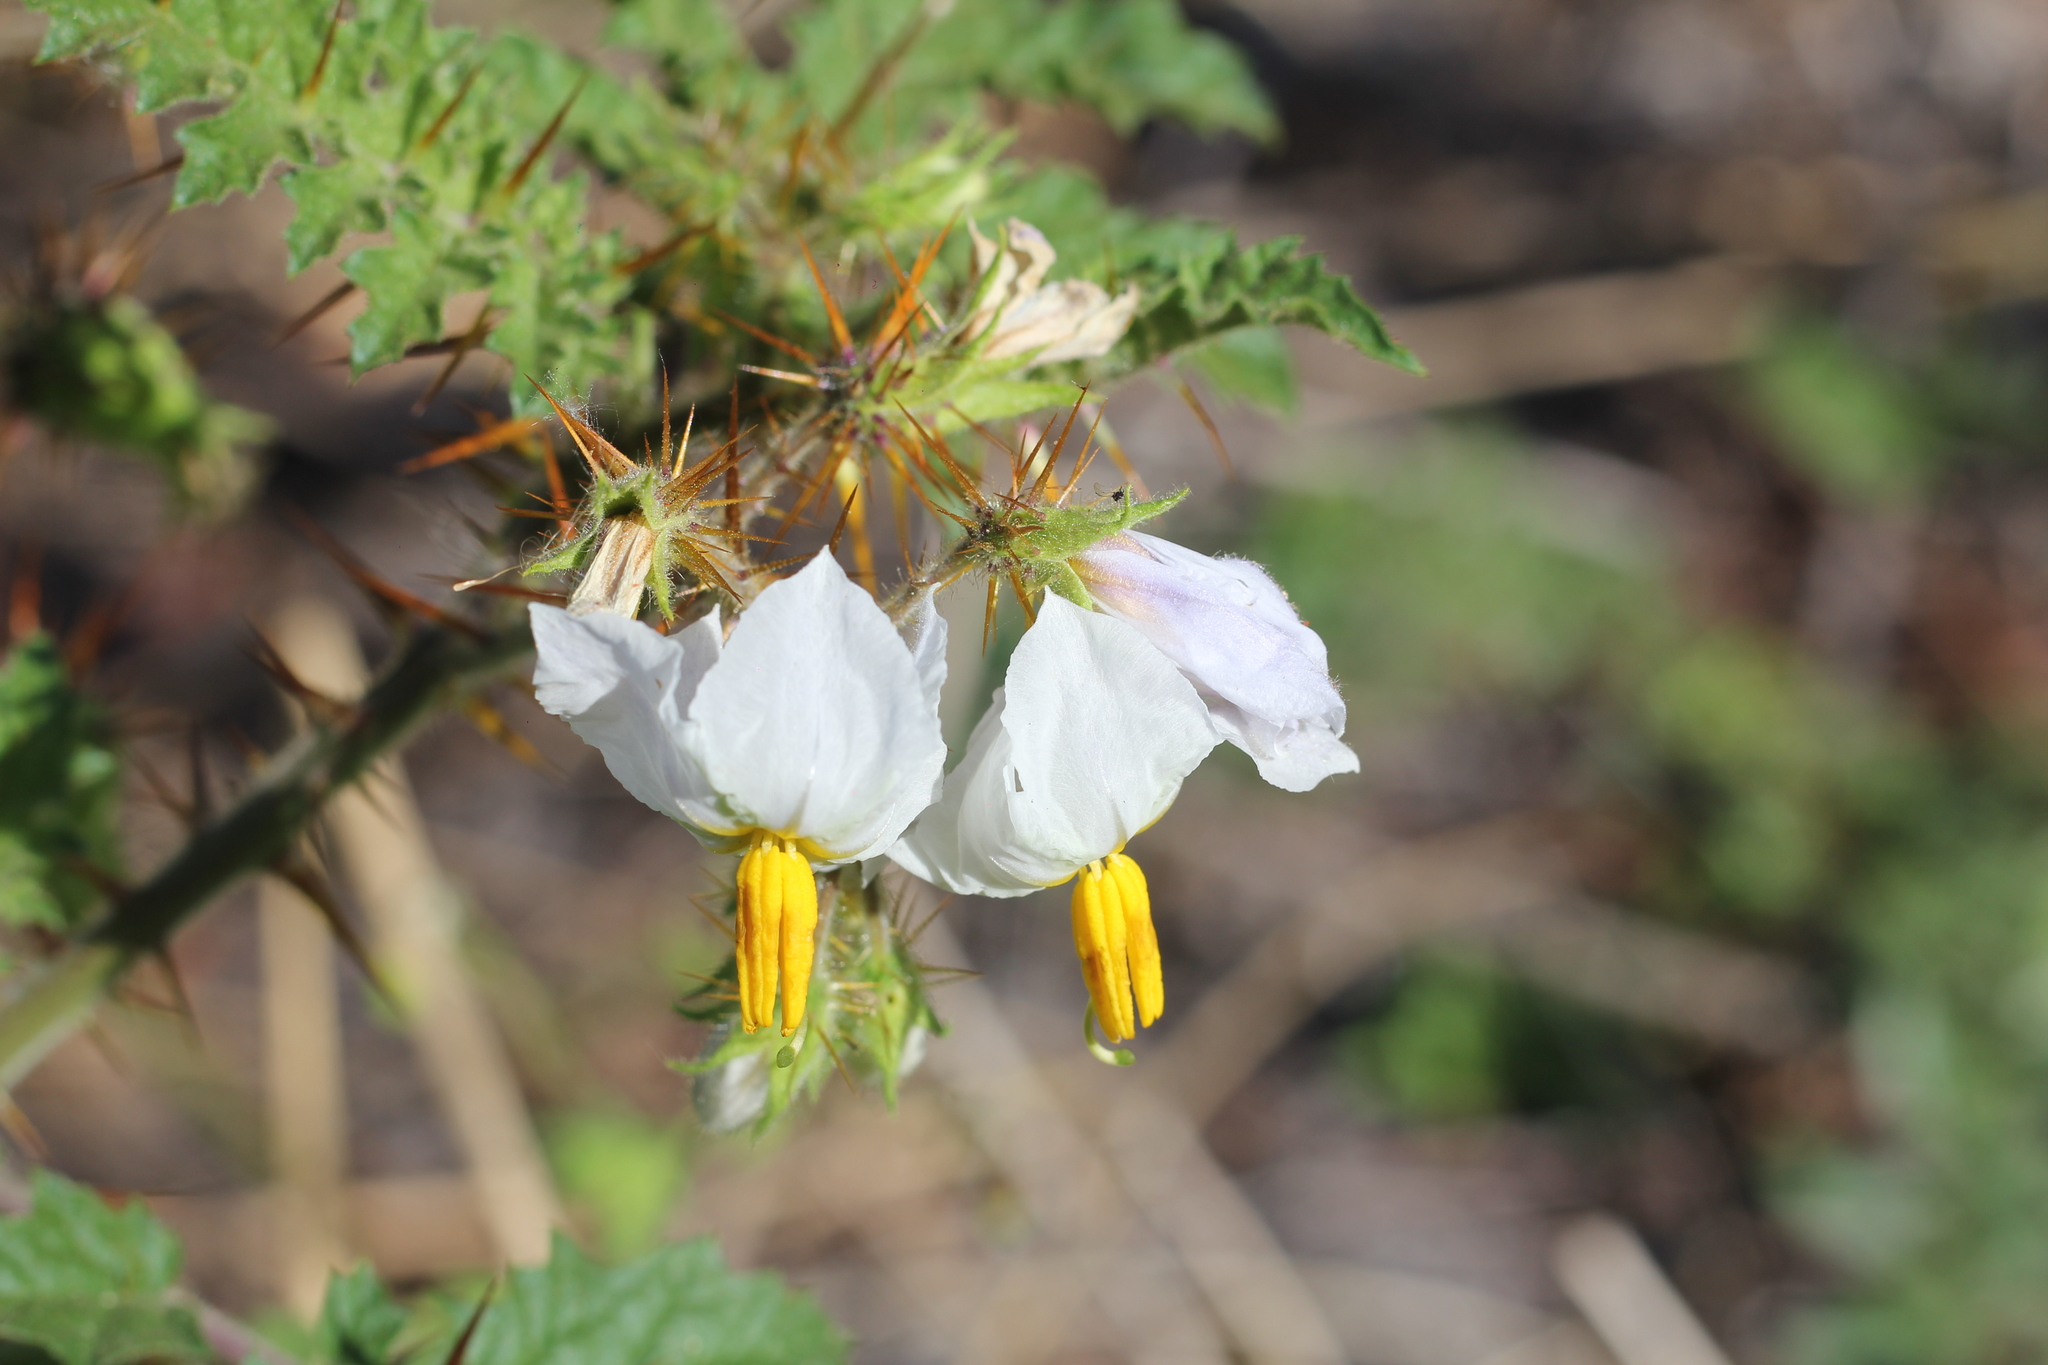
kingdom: Plantae
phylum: Tracheophyta
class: Magnoliopsida
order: Solanales
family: Solanaceae
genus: Solanum
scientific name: Solanum sisymbriifolium
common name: Red buffalo-bur
